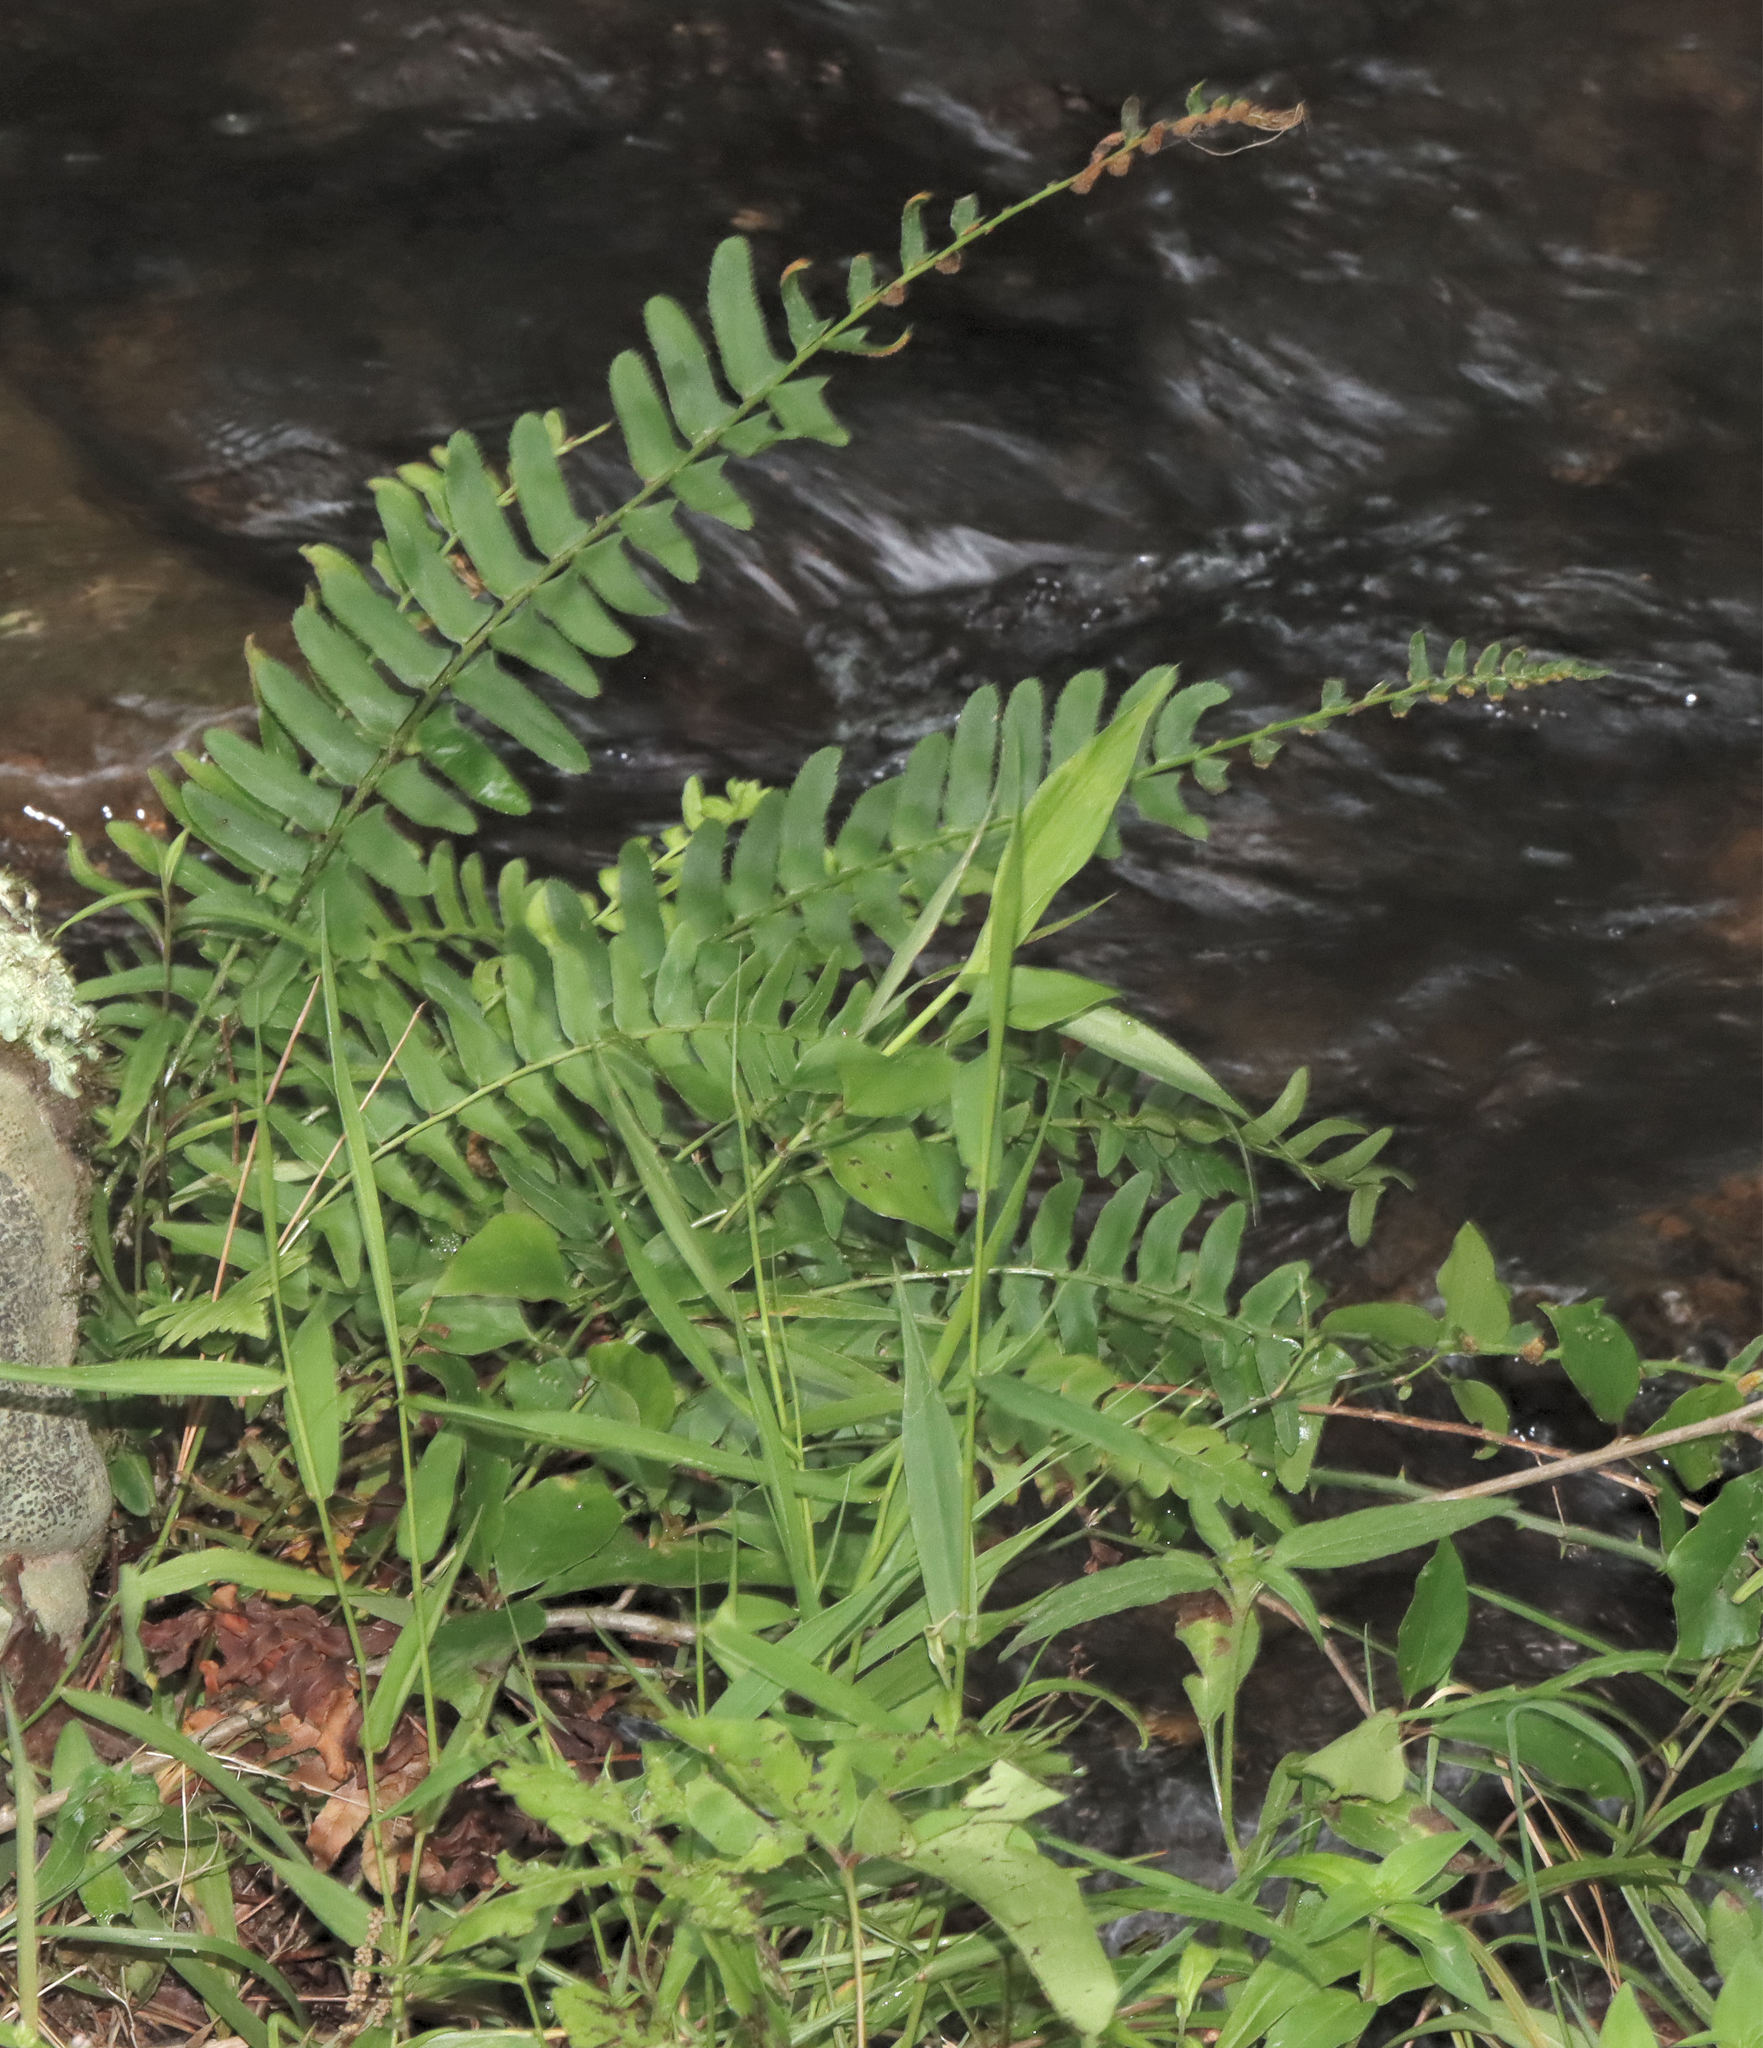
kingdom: Plantae
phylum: Tracheophyta
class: Polypodiopsida
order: Polypodiales
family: Dryopteridaceae
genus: Polystichum
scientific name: Polystichum acrostichoides
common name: Christmas fern
